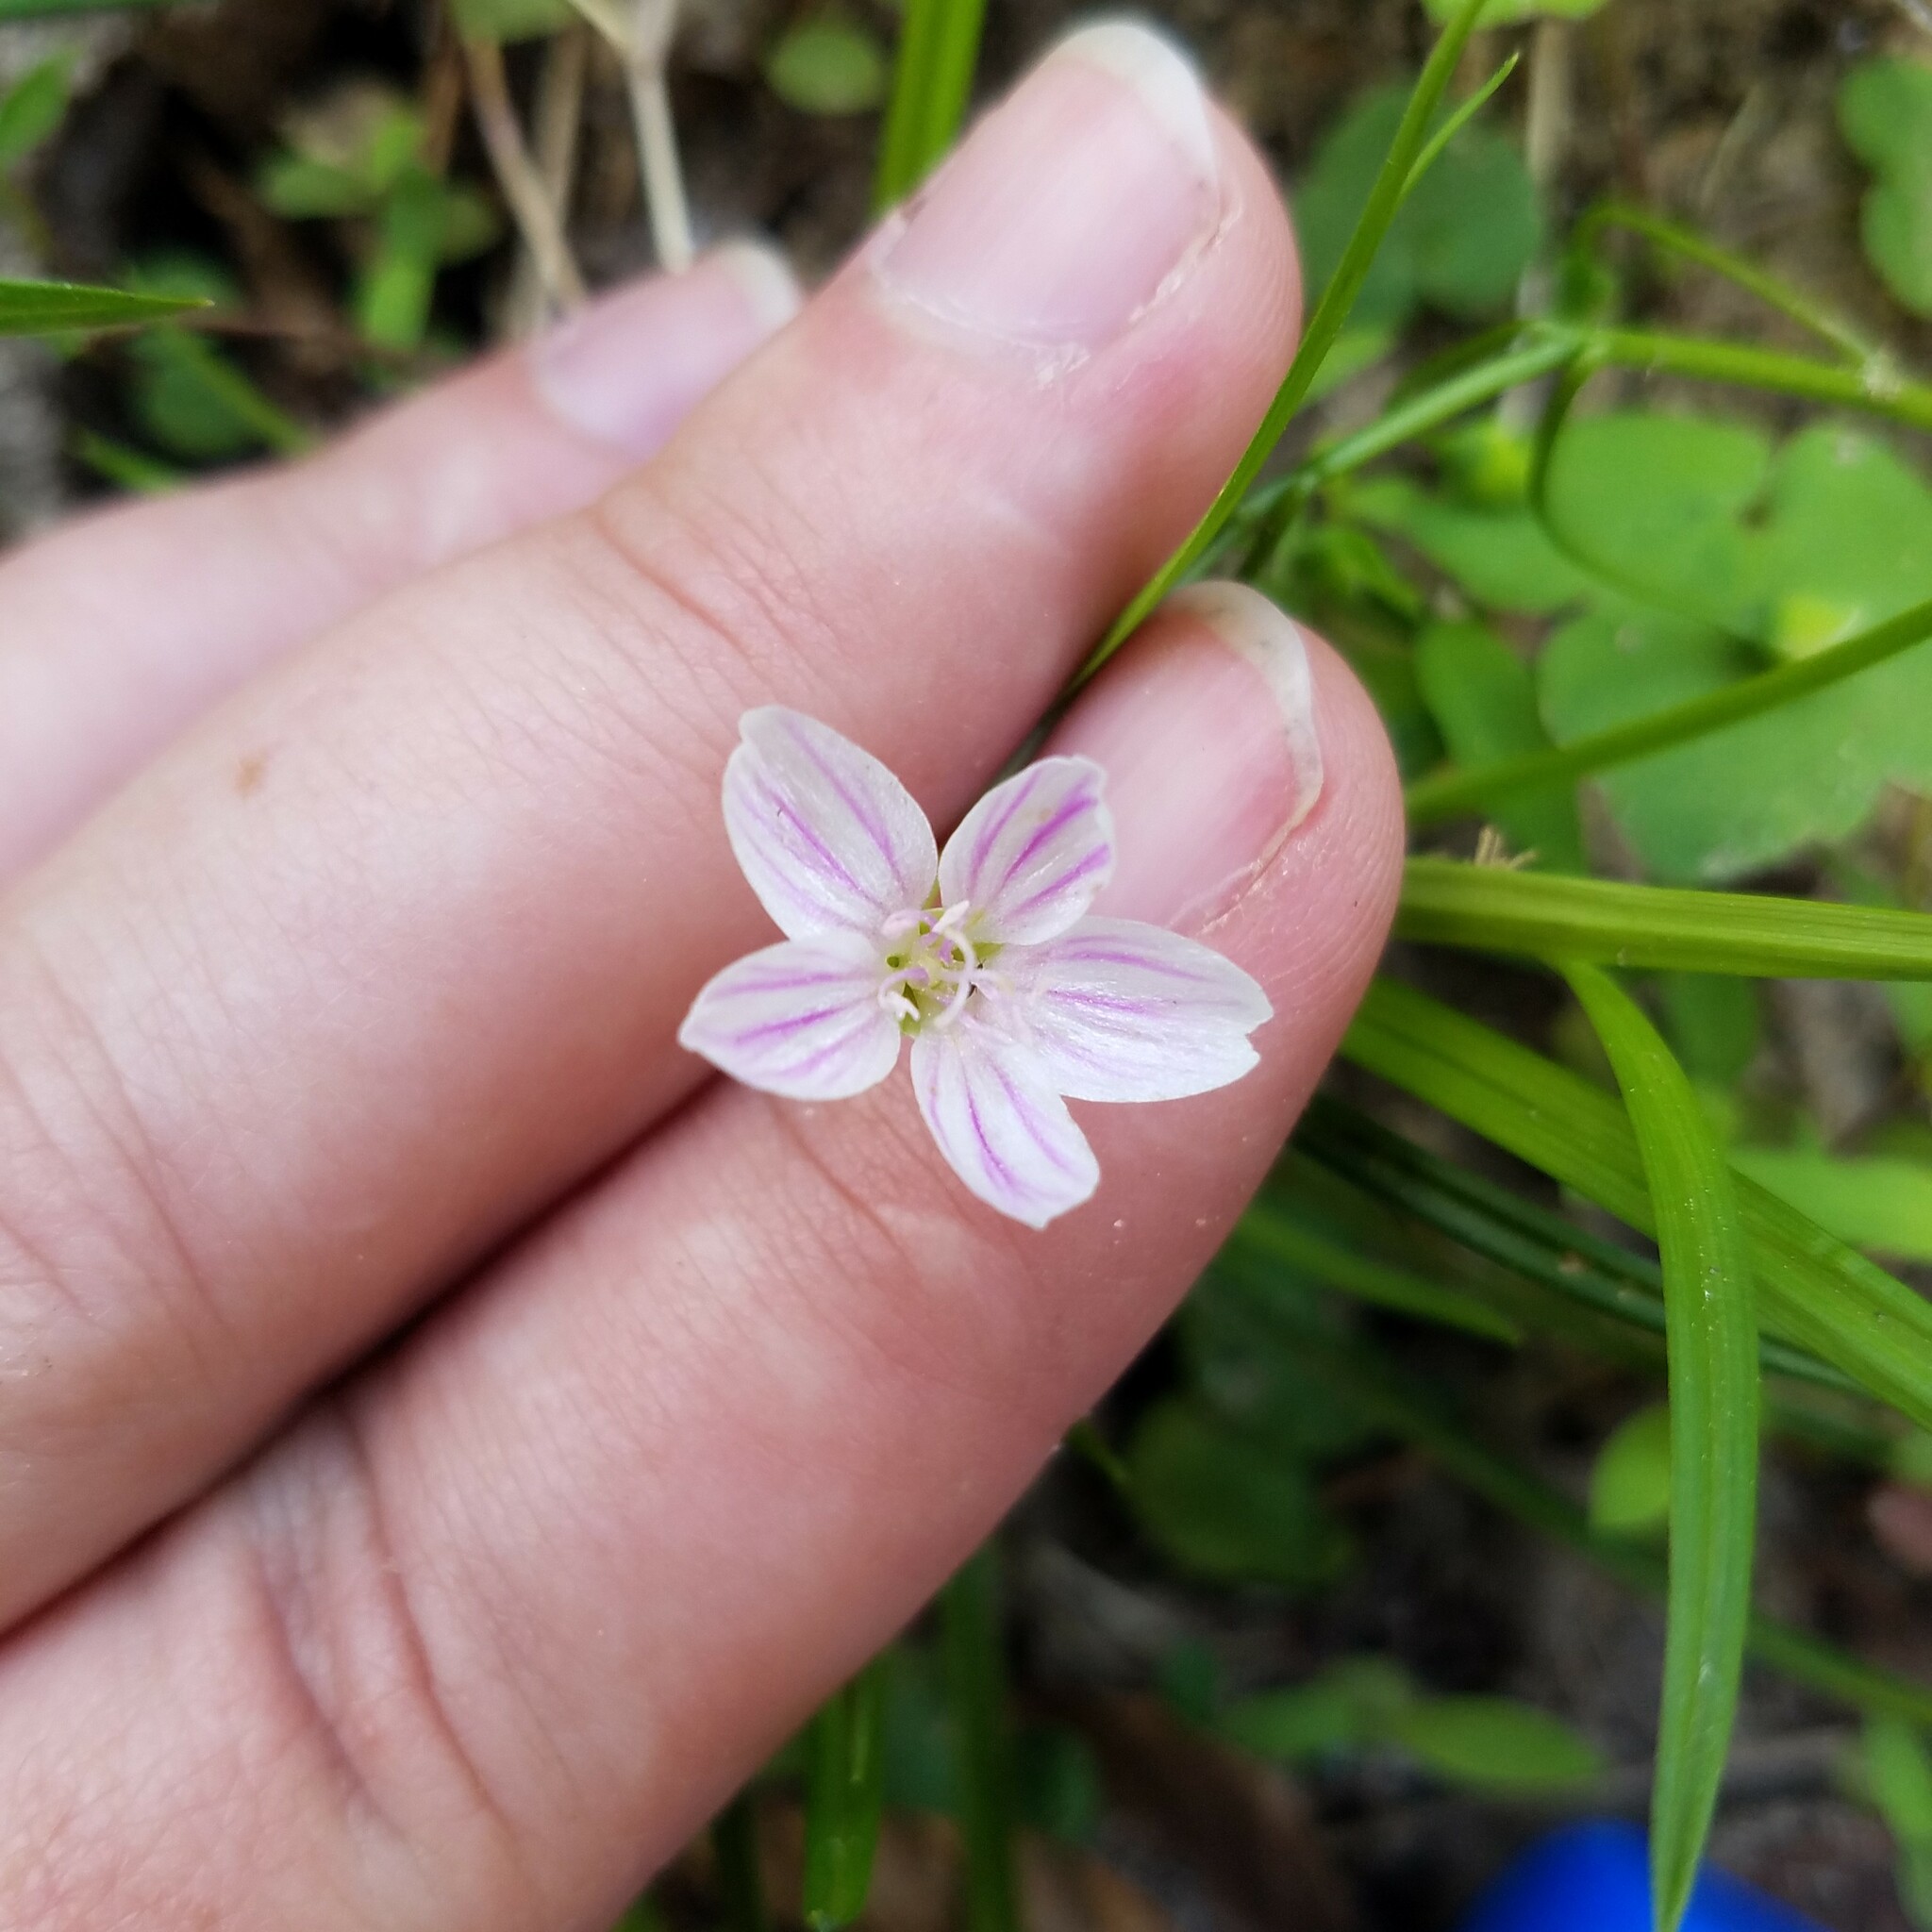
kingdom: Plantae
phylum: Tracheophyta
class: Magnoliopsida
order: Caryophyllales
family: Montiaceae
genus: Claytonia
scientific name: Claytonia virginica
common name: Virginia springbeauty
